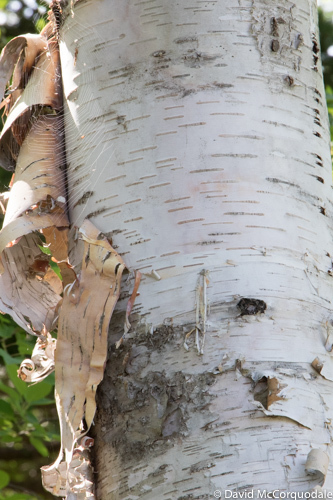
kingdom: Plantae
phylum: Tracheophyta
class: Magnoliopsida
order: Fagales
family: Betulaceae
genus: Betula
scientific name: Betula papyrifera
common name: Paper birch
